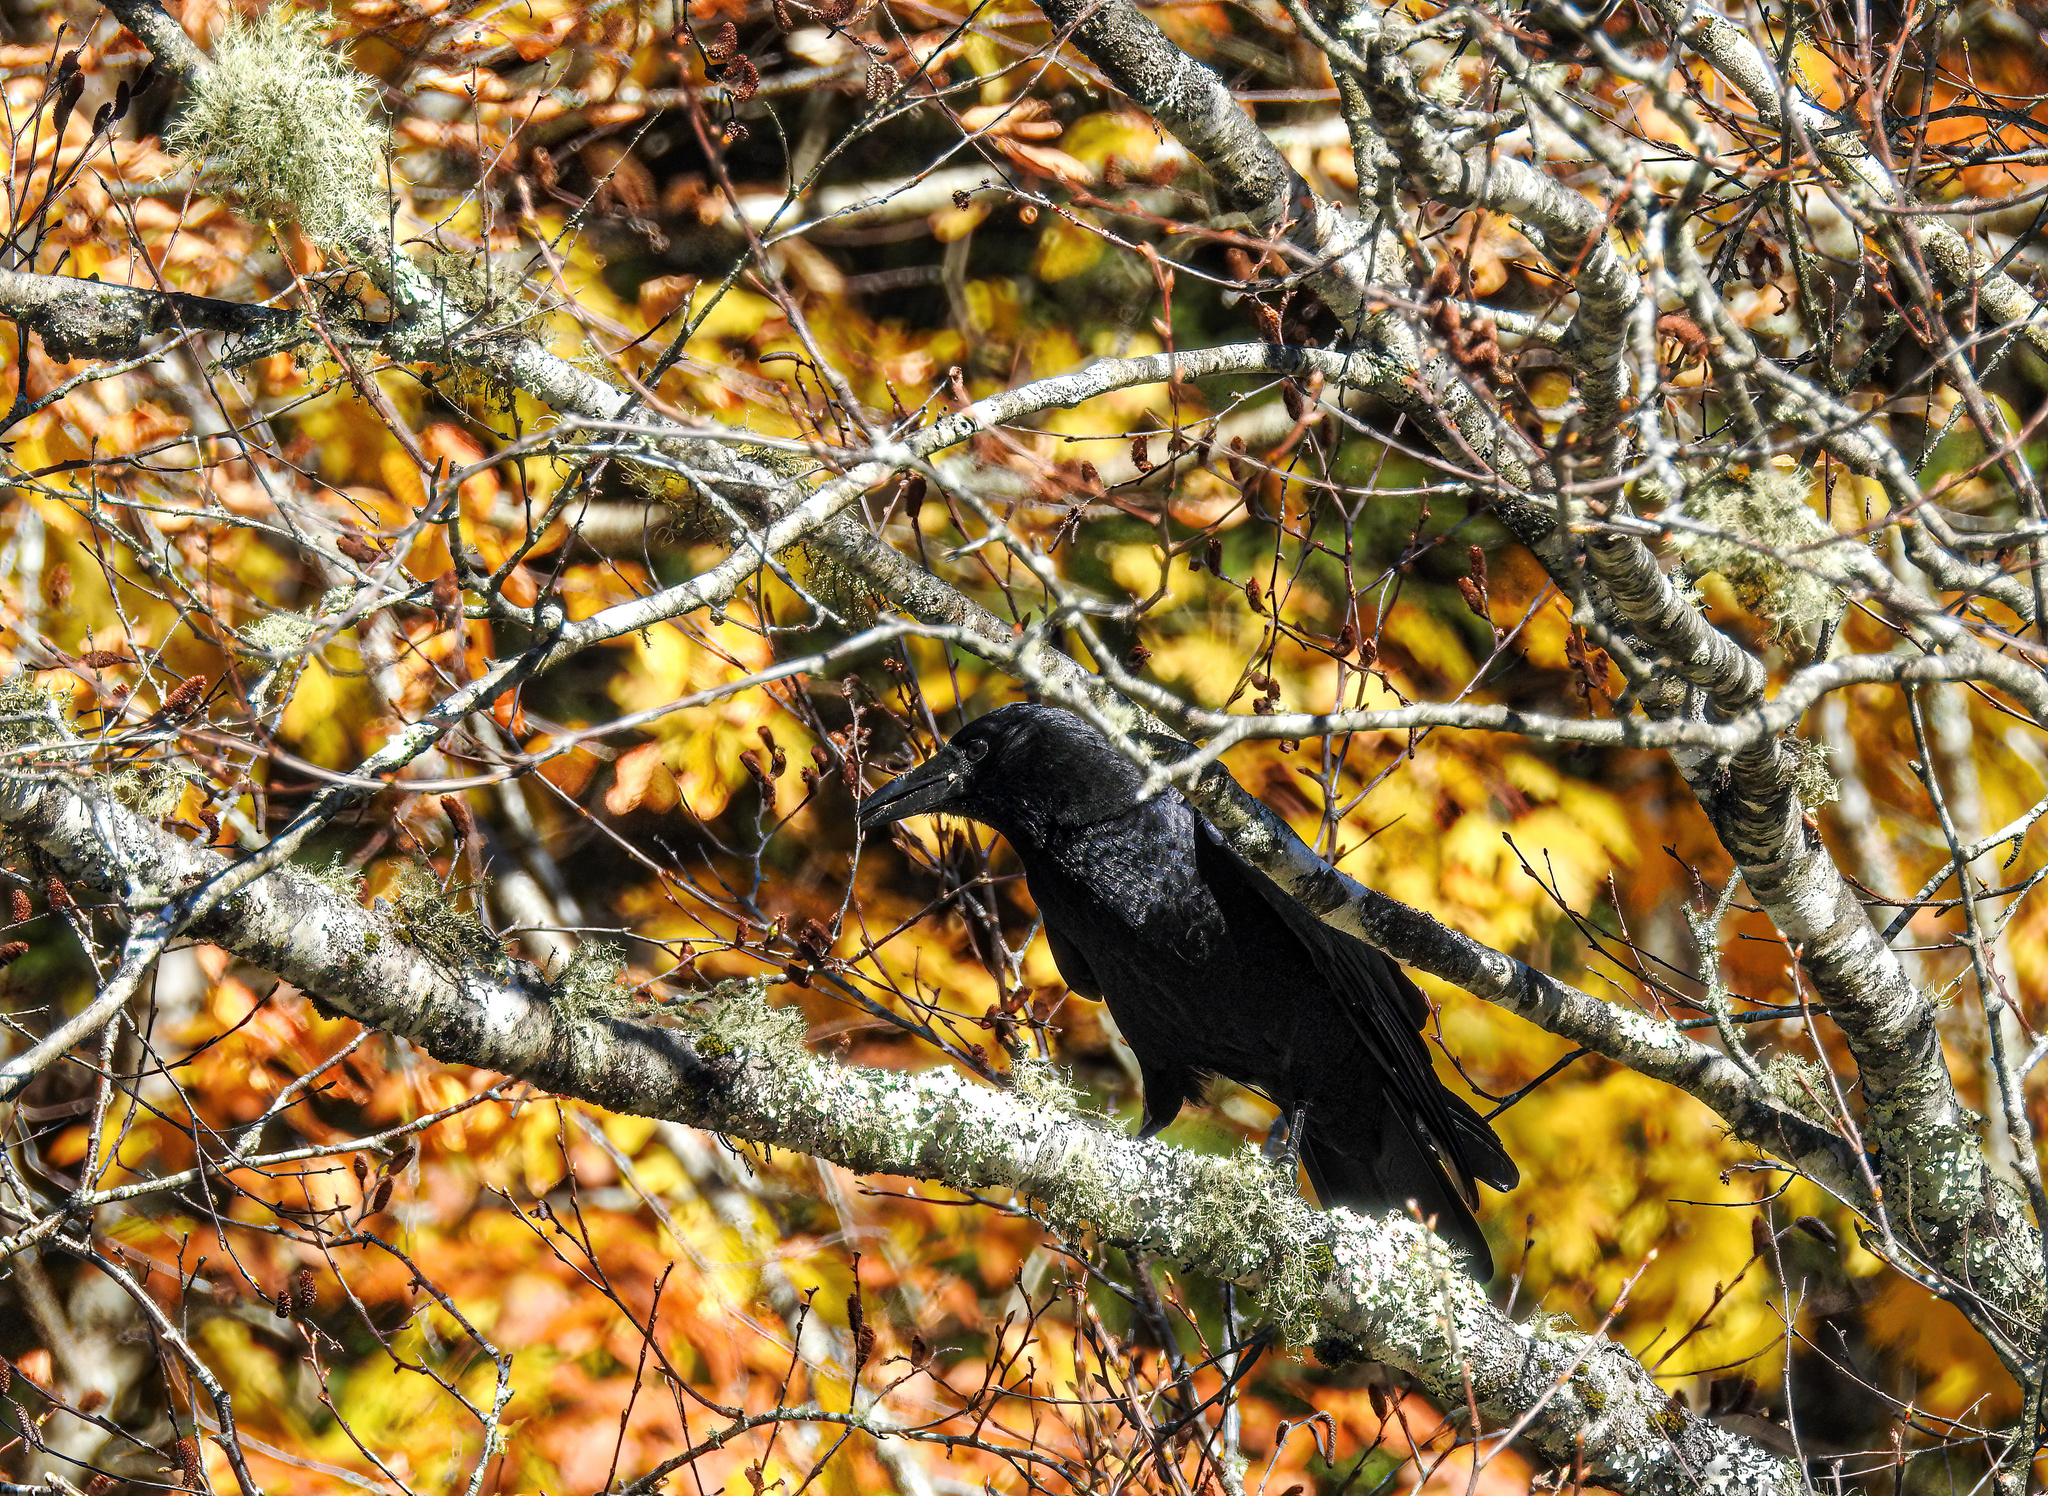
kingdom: Animalia
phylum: Chordata
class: Aves
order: Passeriformes
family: Corvidae
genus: Corvus
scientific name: Corvus brachyrhynchos
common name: American crow
